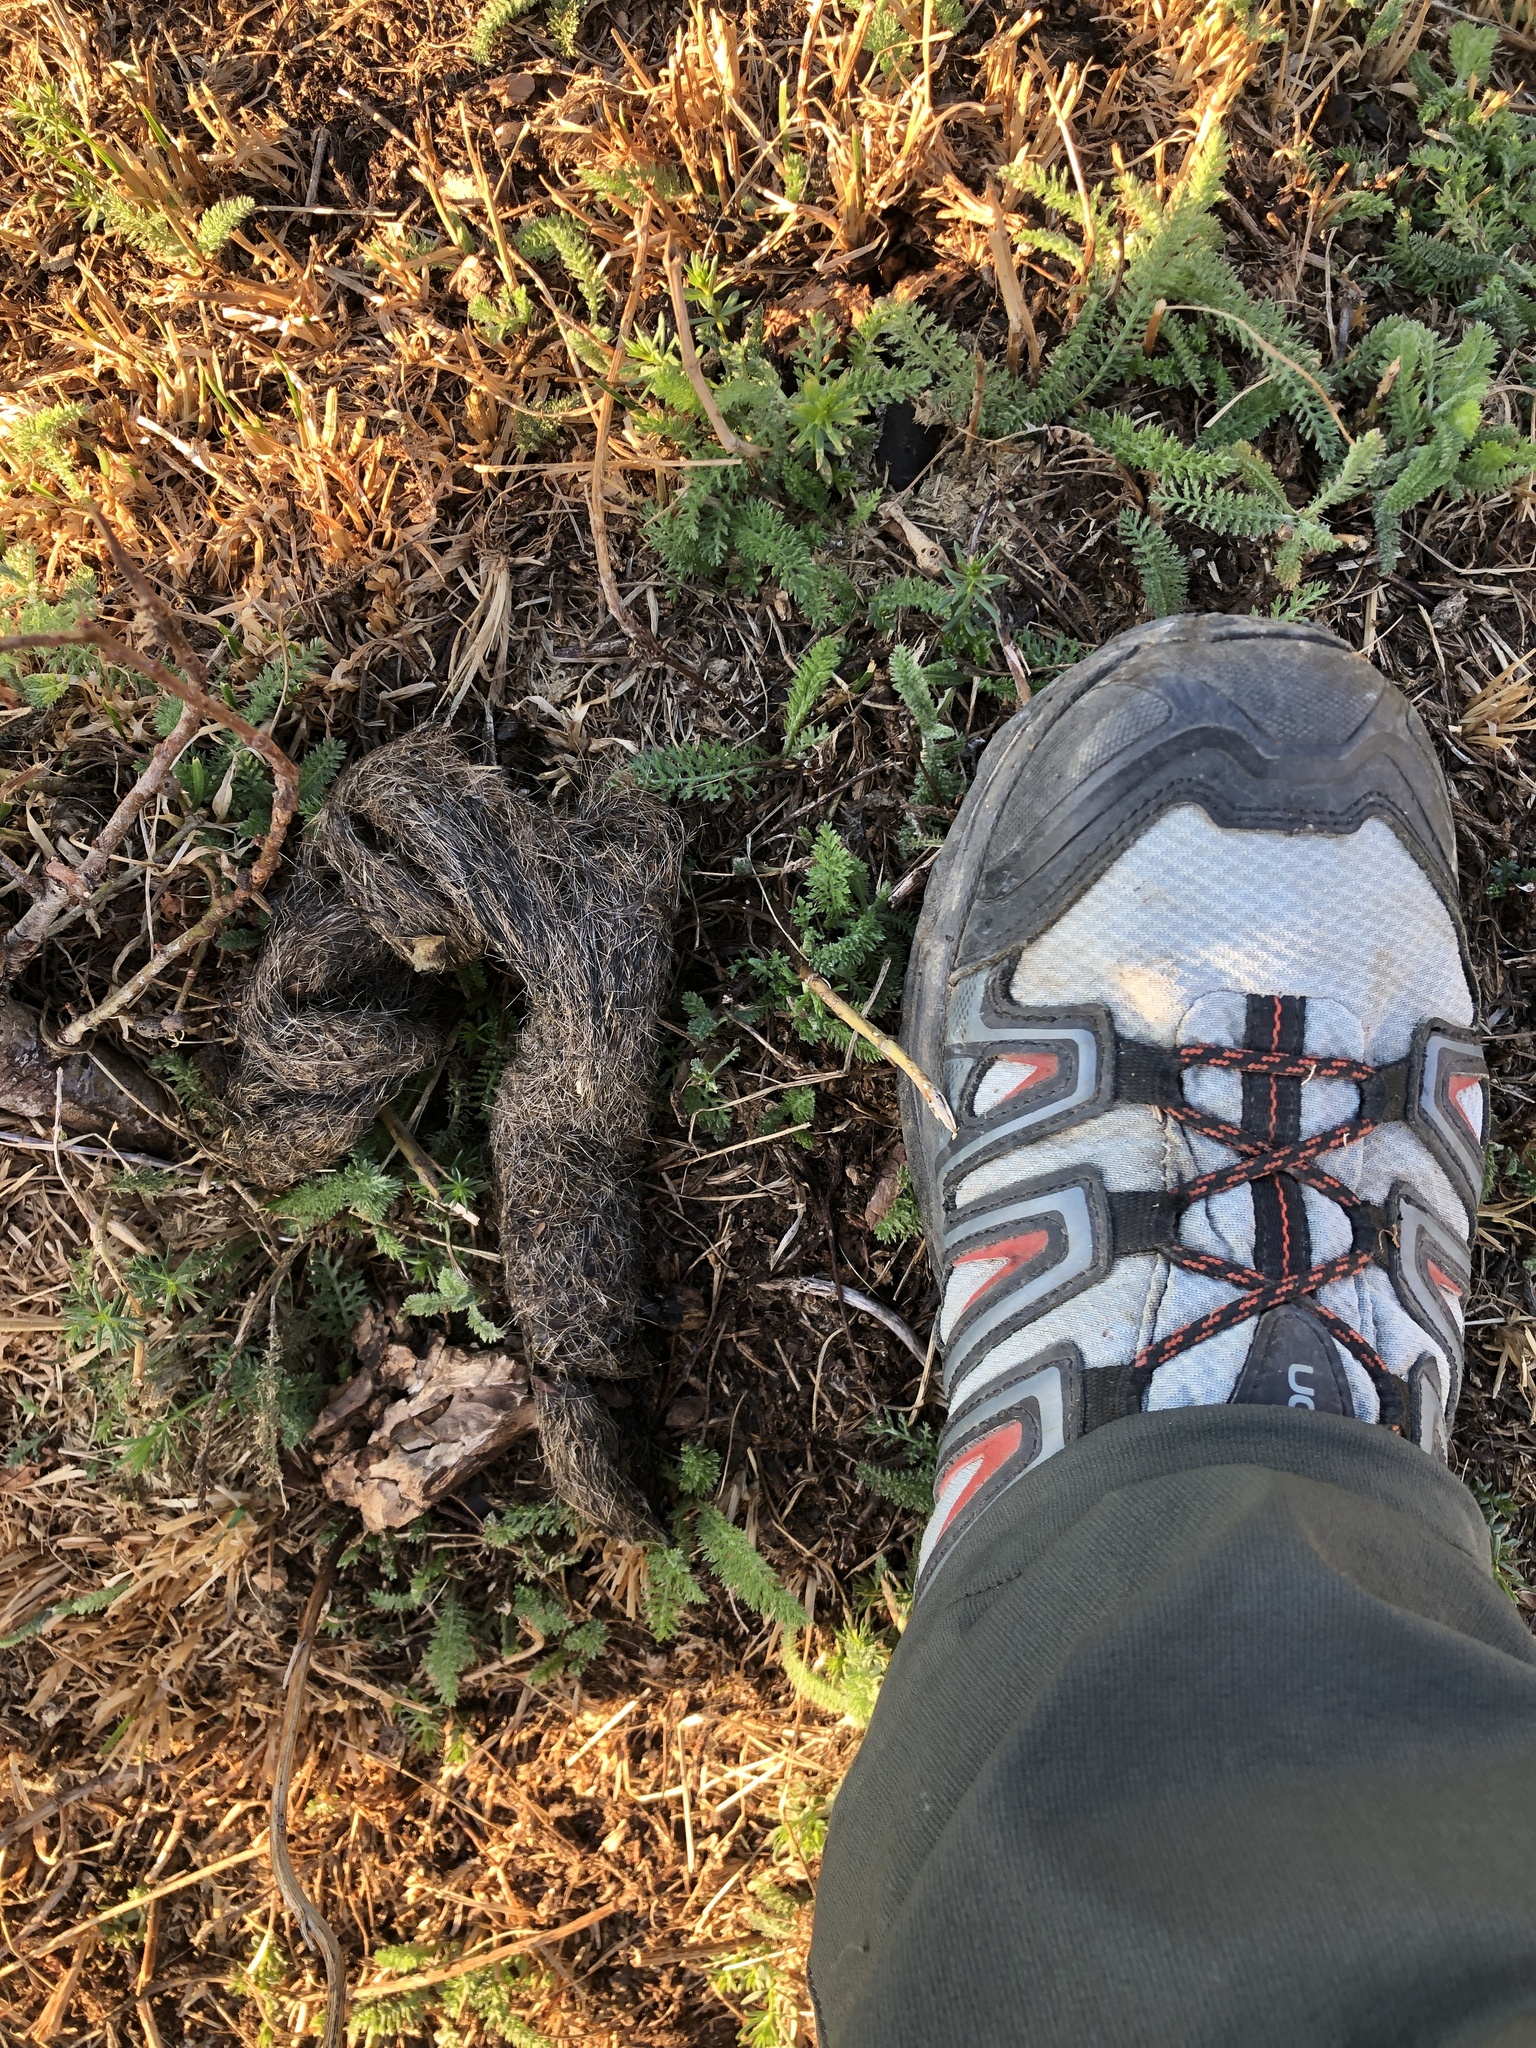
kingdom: Animalia
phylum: Chordata
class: Mammalia
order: Carnivora
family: Canidae
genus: Canis
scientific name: Canis lupus
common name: Gray wolf
